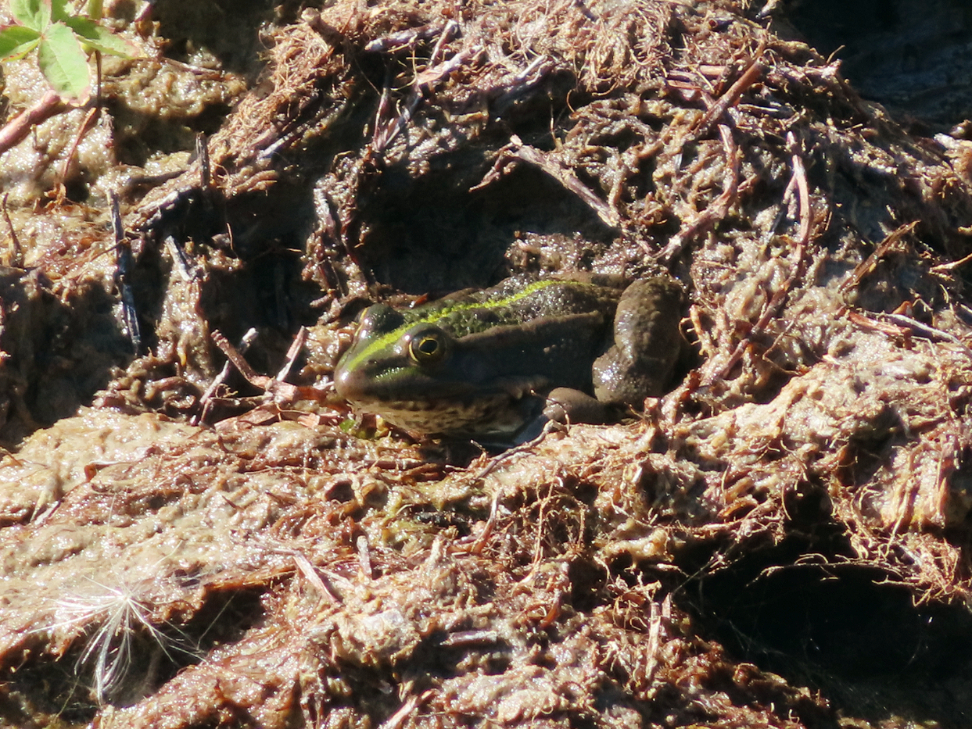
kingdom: Animalia
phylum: Chordata
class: Amphibia
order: Anura
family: Ranidae
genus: Pelophylax
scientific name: Pelophylax ridibundus
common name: Marsh frog
